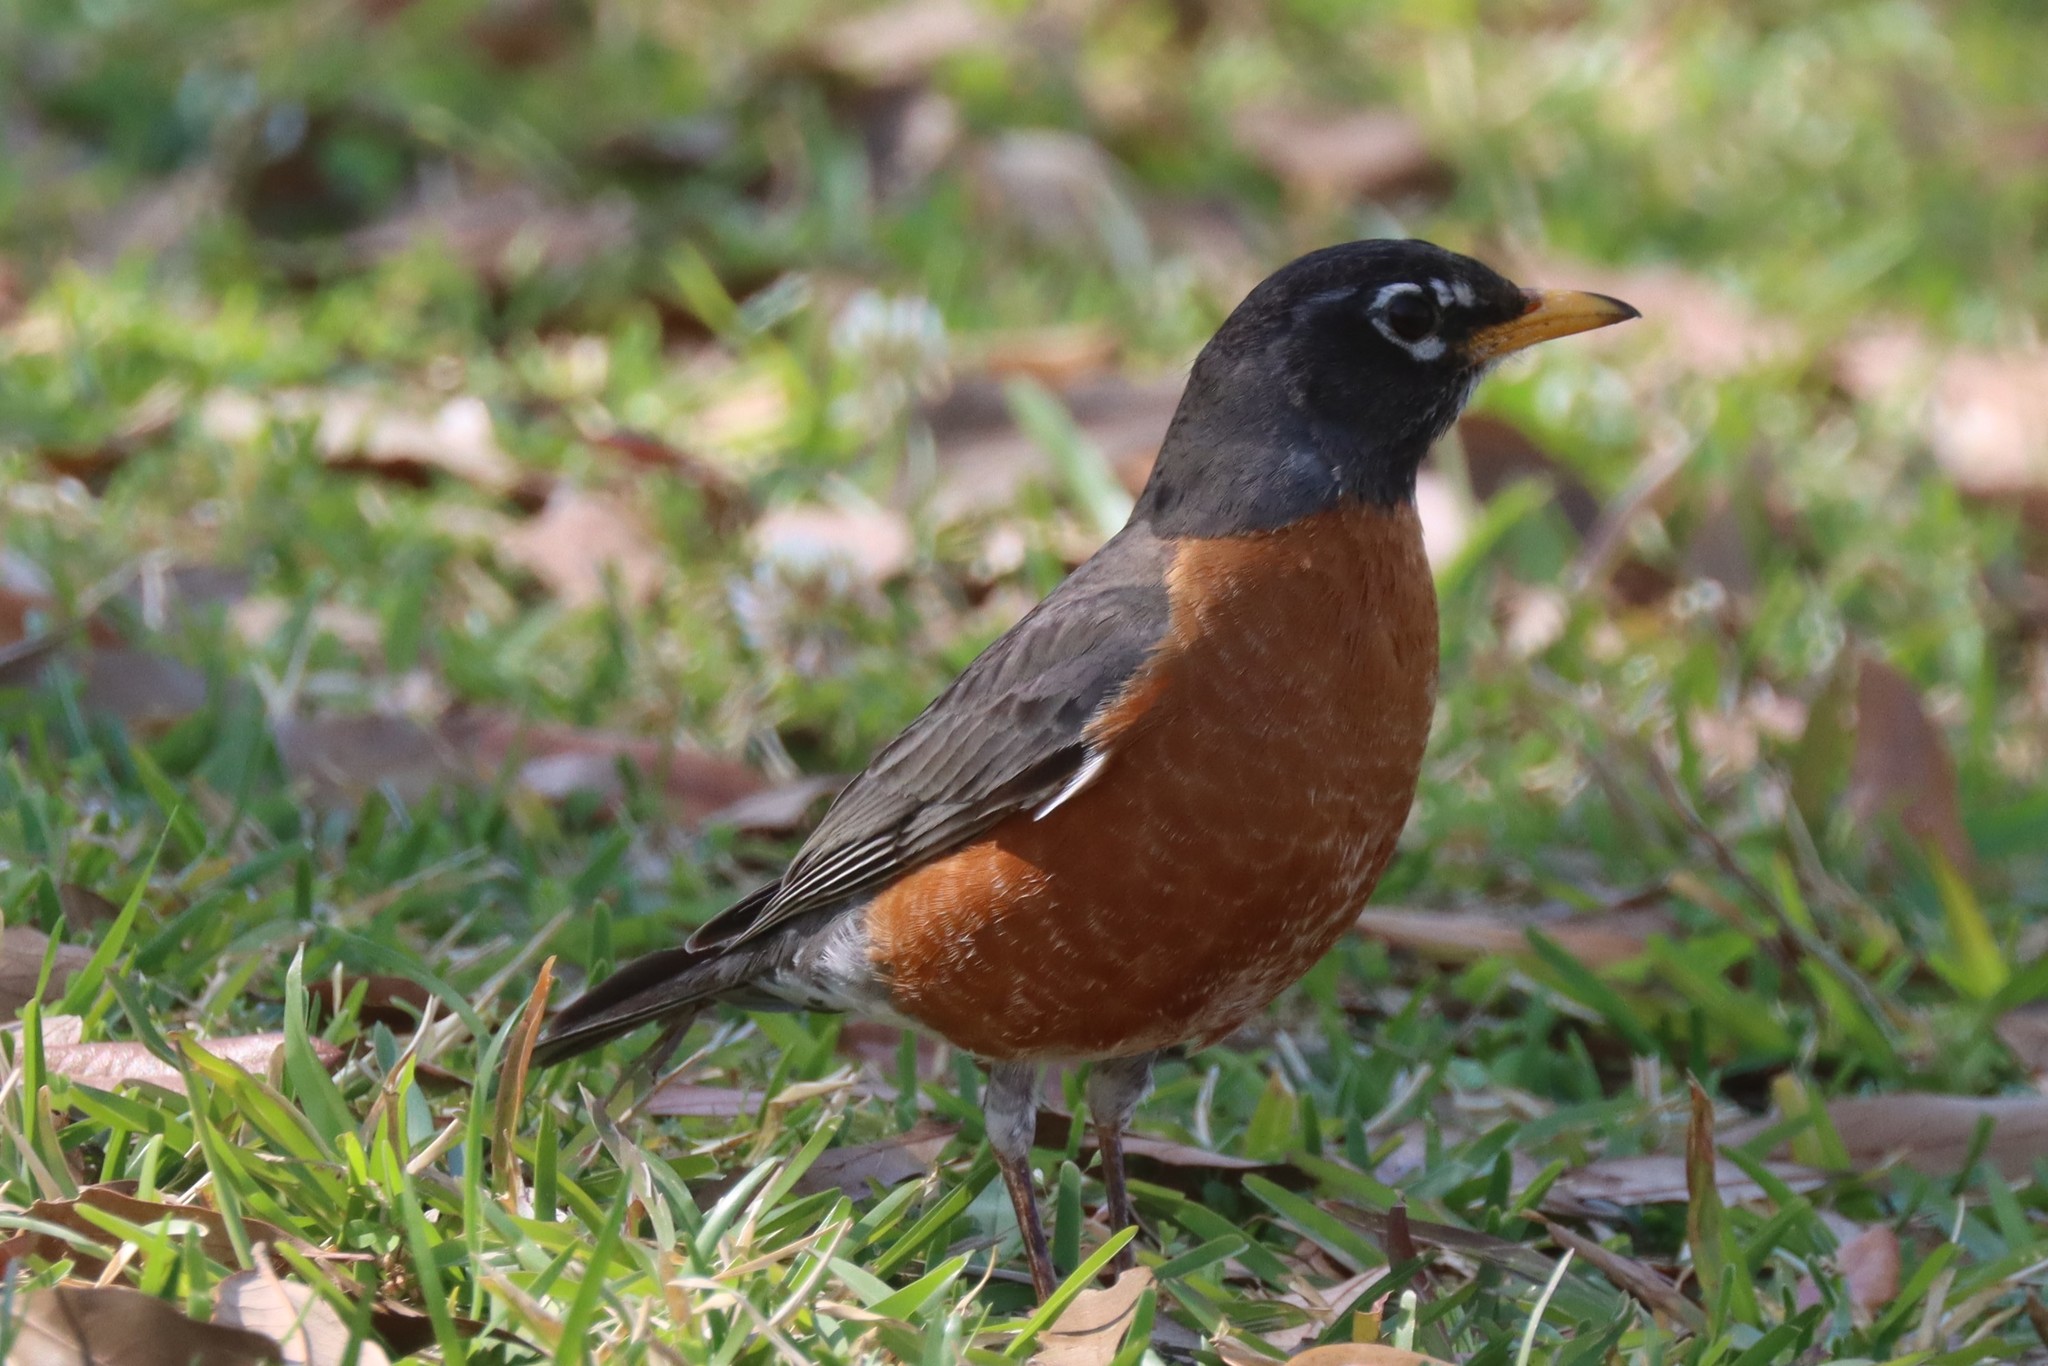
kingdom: Animalia
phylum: Chordata
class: Aves
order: Passeriformes
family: Turdidae
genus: Turdus
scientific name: Turdus migratorius
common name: American robin
